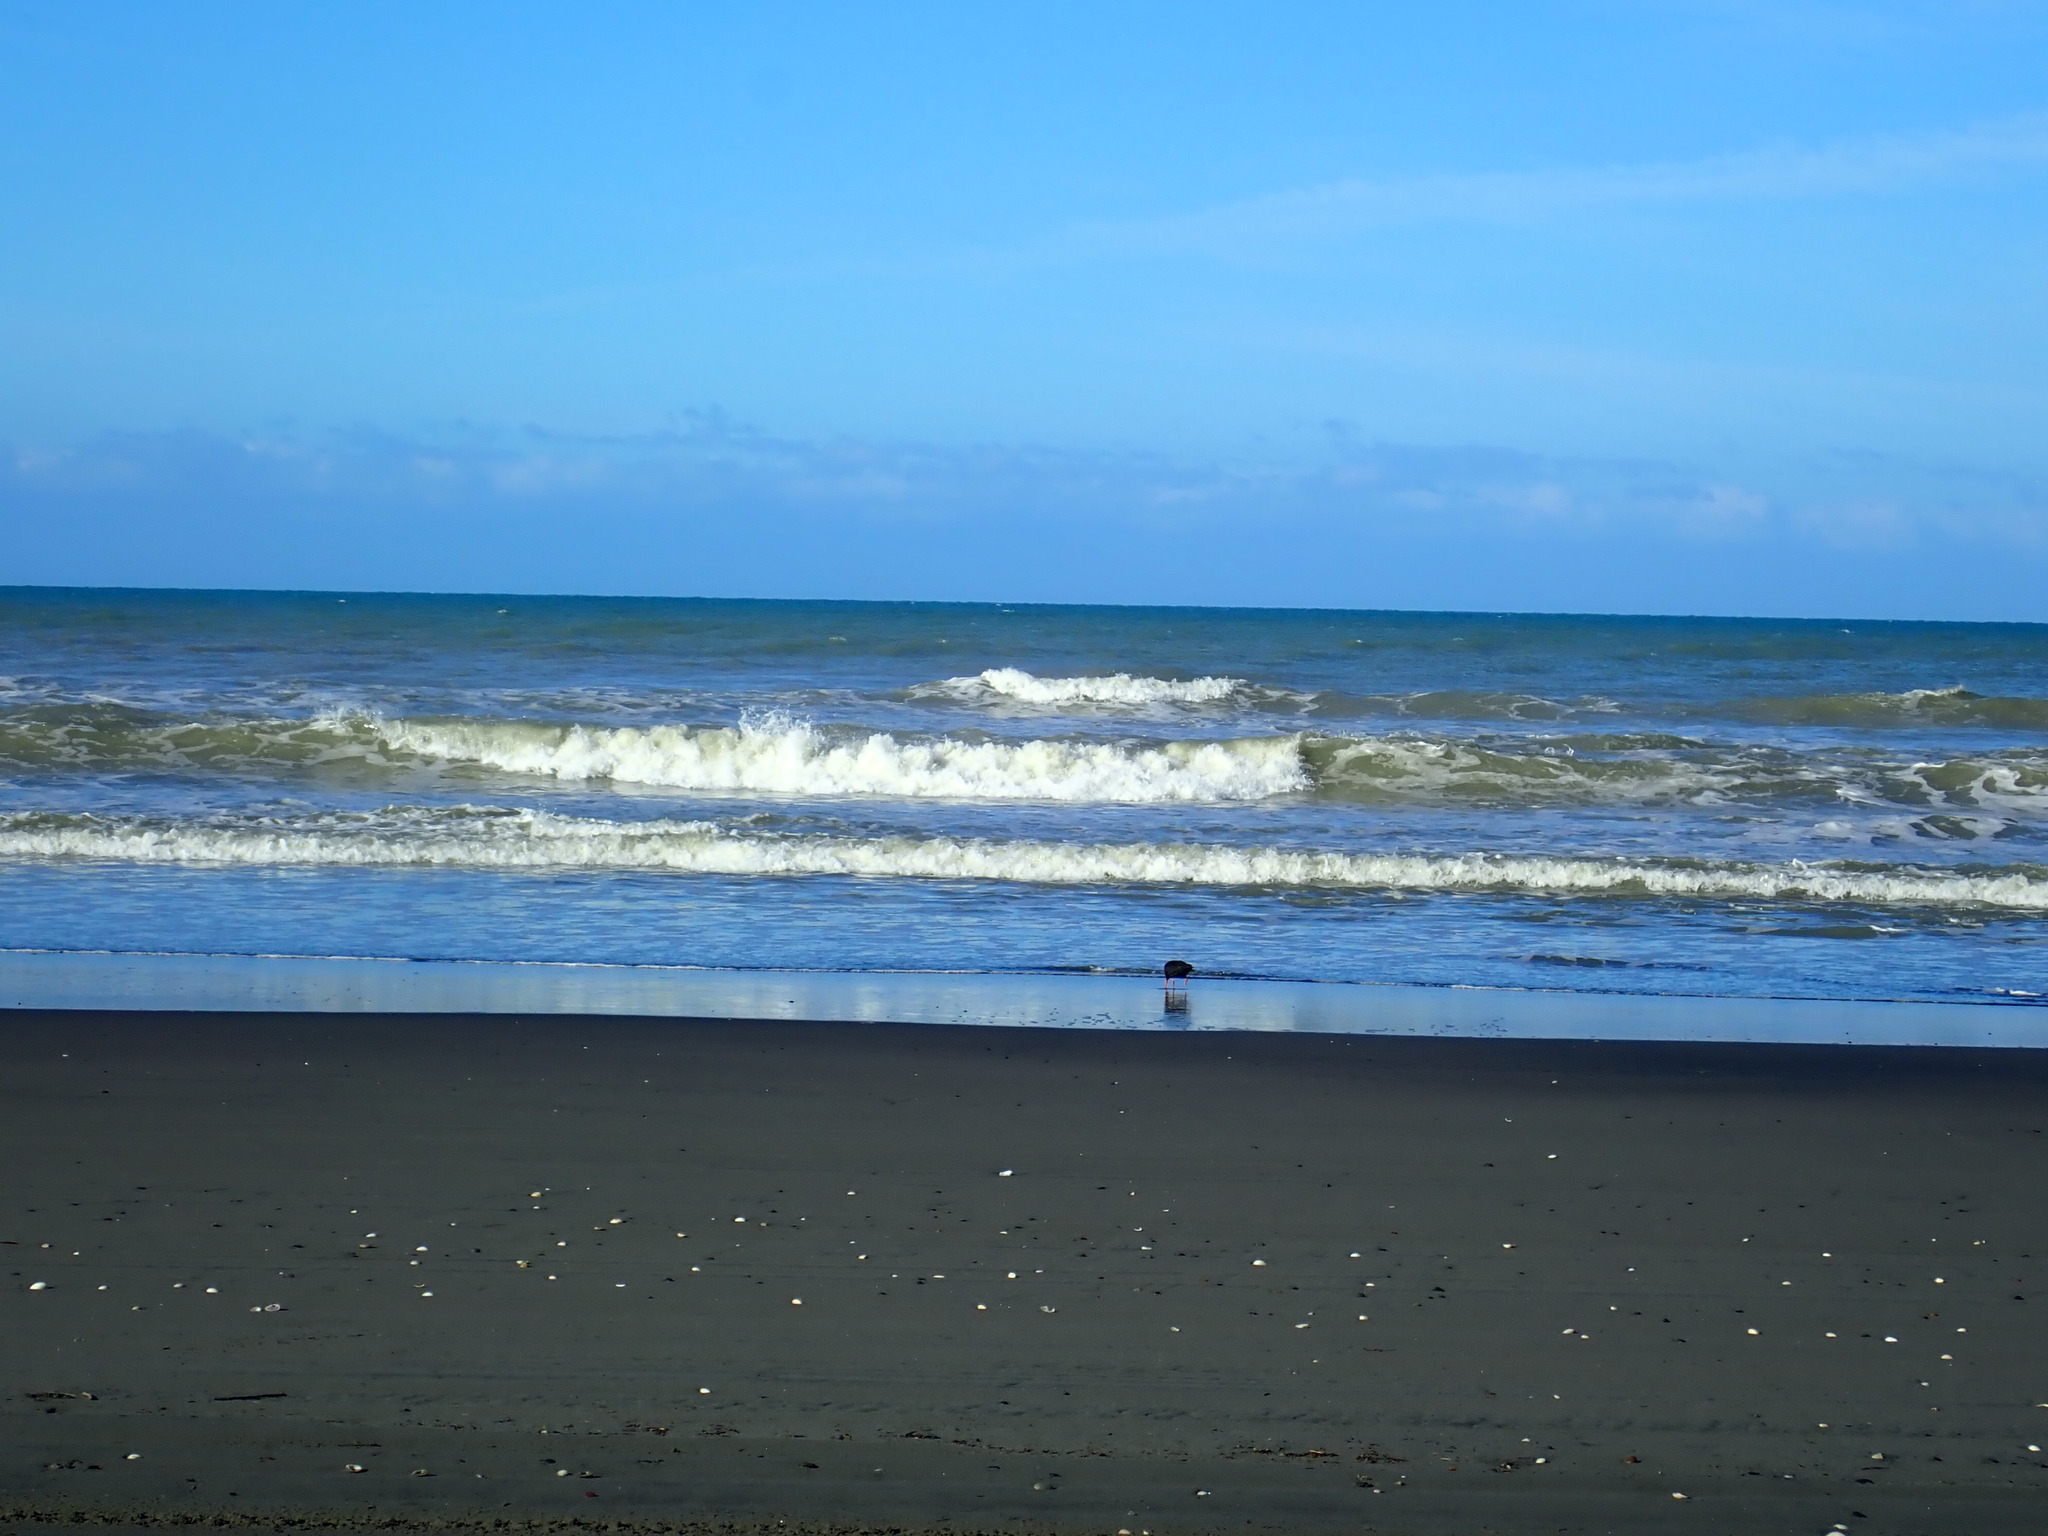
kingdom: Animalia
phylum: Chordata
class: Aves
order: Charadriiformes
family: Haematopodidae
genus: Haematopus
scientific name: Haematopus unicolor
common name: Variable oystercatcher
